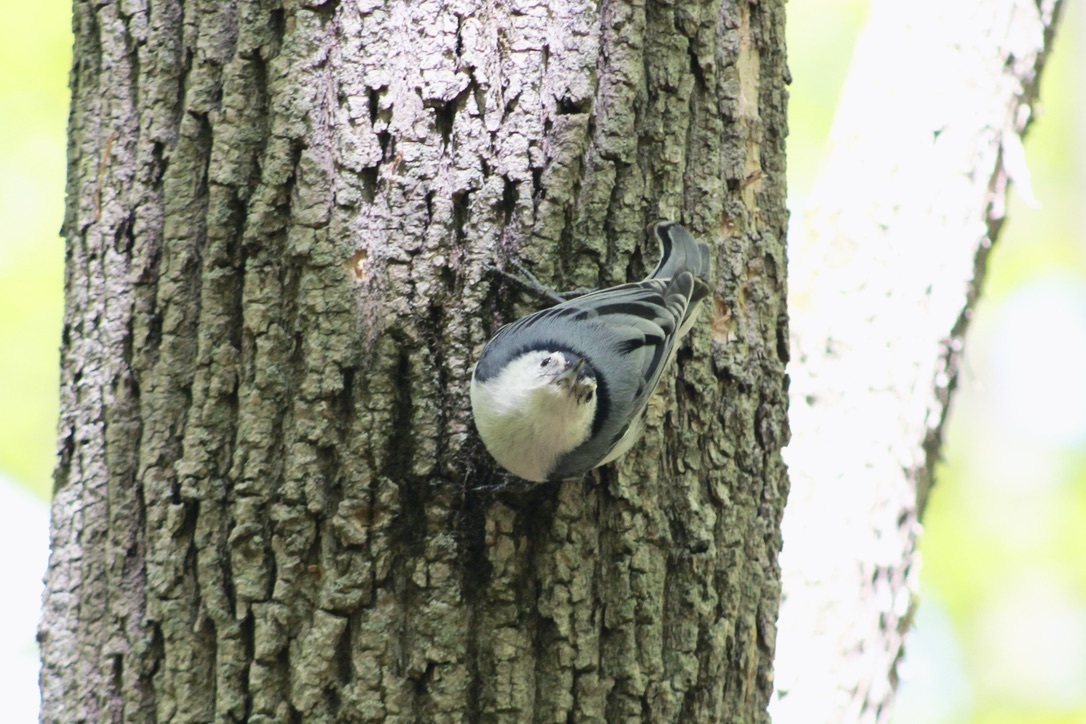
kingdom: Animalia
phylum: Chordata
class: Aves
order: Passeriformes
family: Sittidae
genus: Sitta
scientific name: Sitta carolinensis
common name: White-breasted nuthatch
